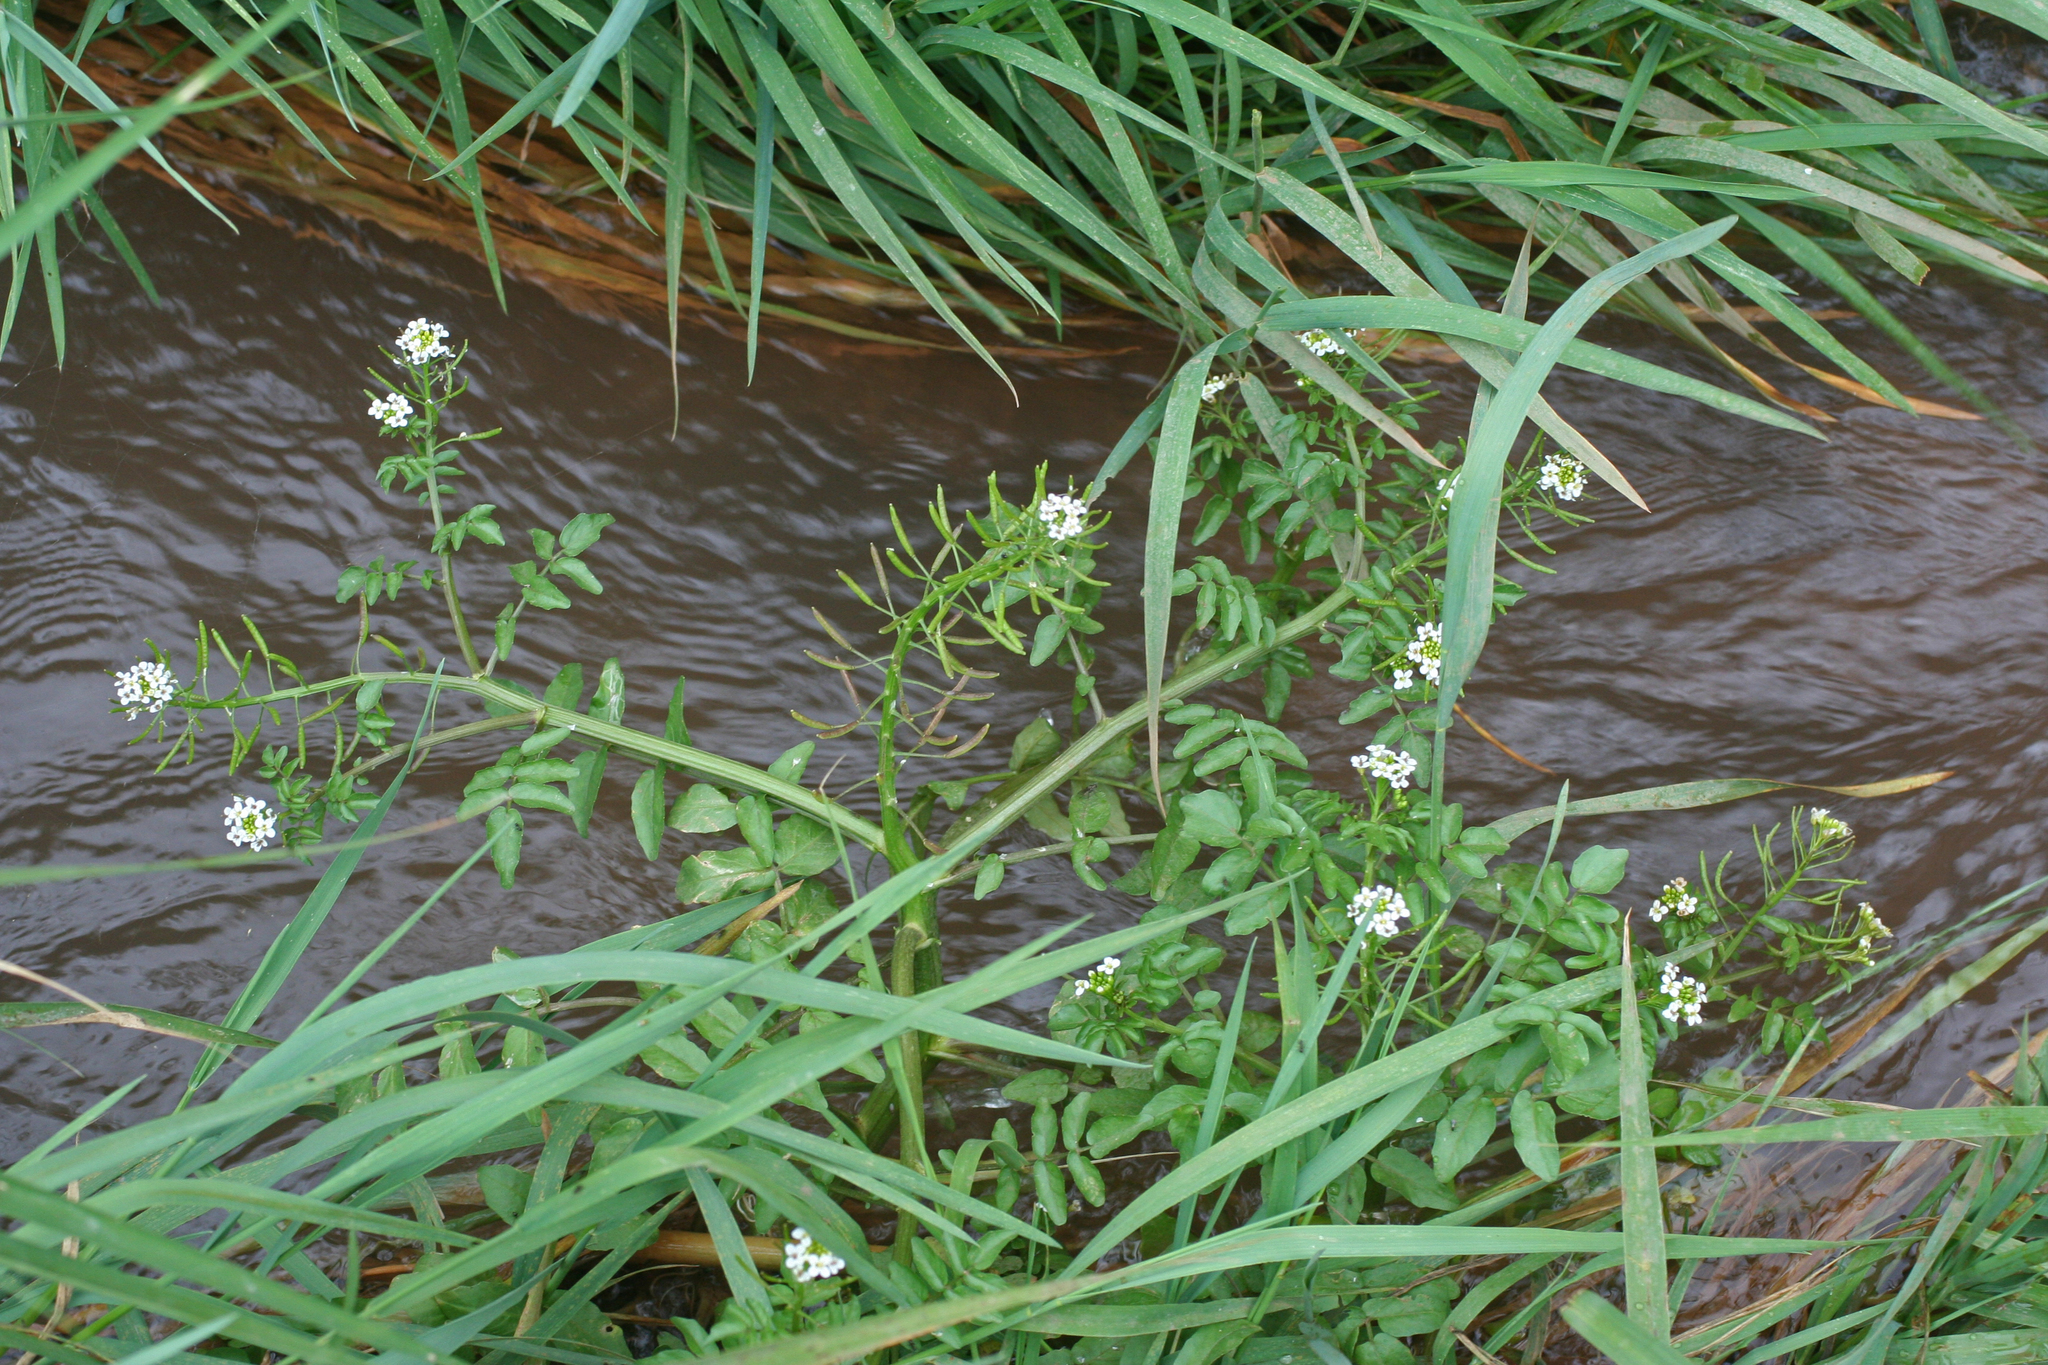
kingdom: Plantae
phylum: Tracheophyta
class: Magnoliopsida
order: Brassicales
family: Brassicaceae
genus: Nasturtium
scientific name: Nasturtium officinale
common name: Watercress
